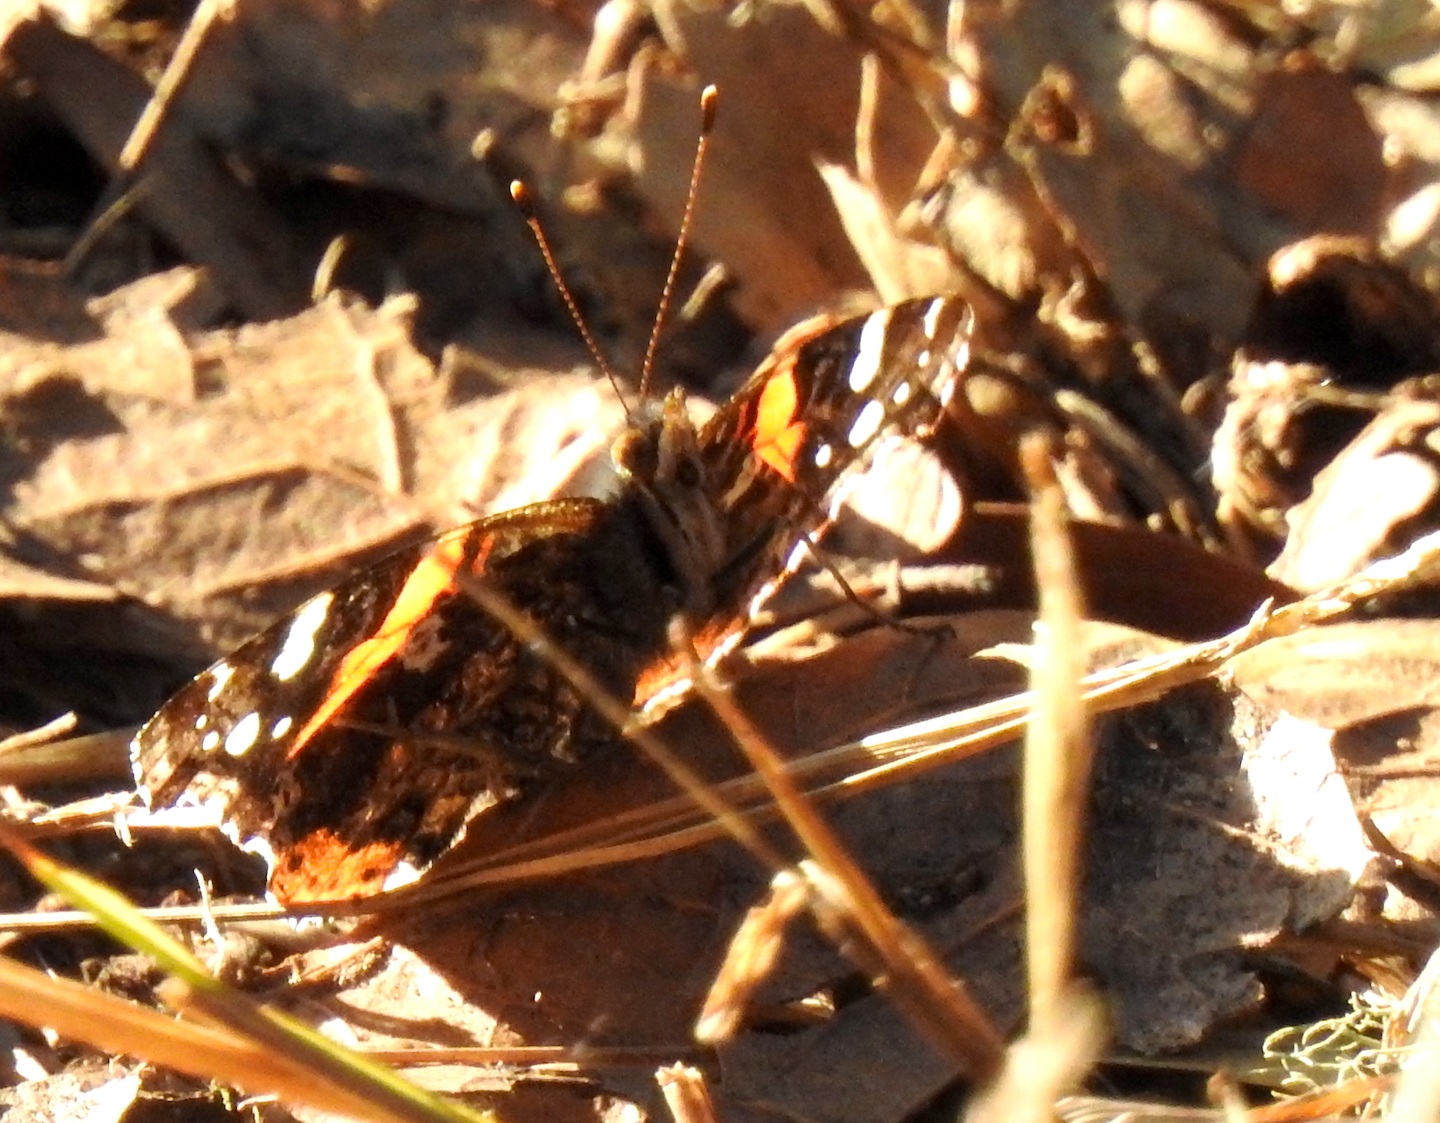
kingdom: Animalia
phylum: Arthropoda
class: Insecta
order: Lepidoptera
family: Nymphalidae
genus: Vanessa
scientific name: Vanessa atalanta
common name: Red admiral
